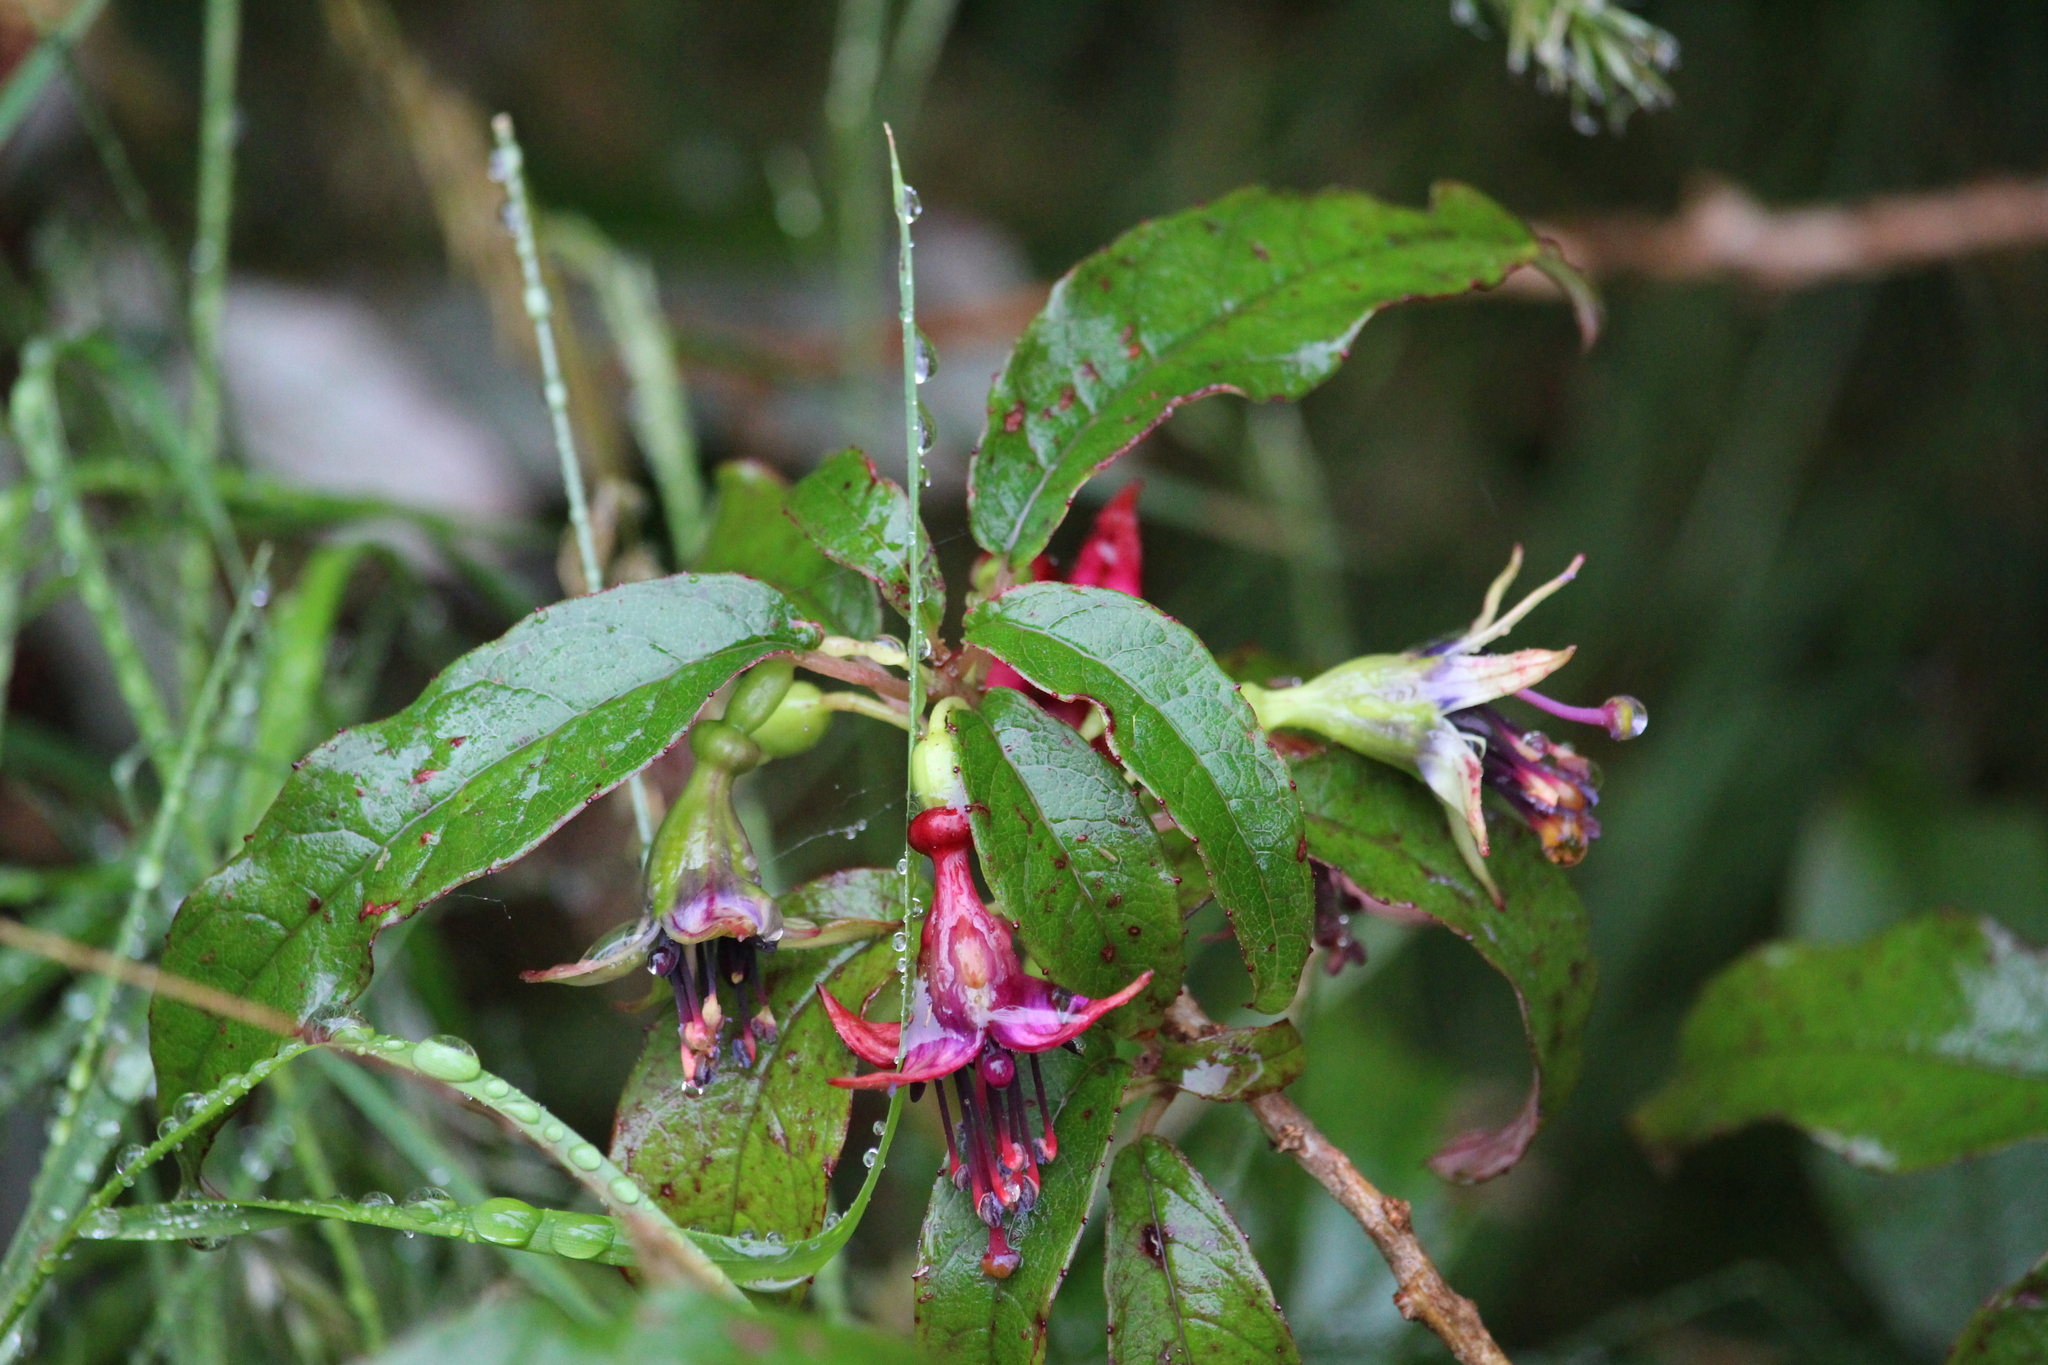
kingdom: Plantae
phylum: Tracheophyta
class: Magnoliopsida
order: Myrtales
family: Onagraceae
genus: Fuchsia
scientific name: Fuchsia excorticata
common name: Tree fuchsia
